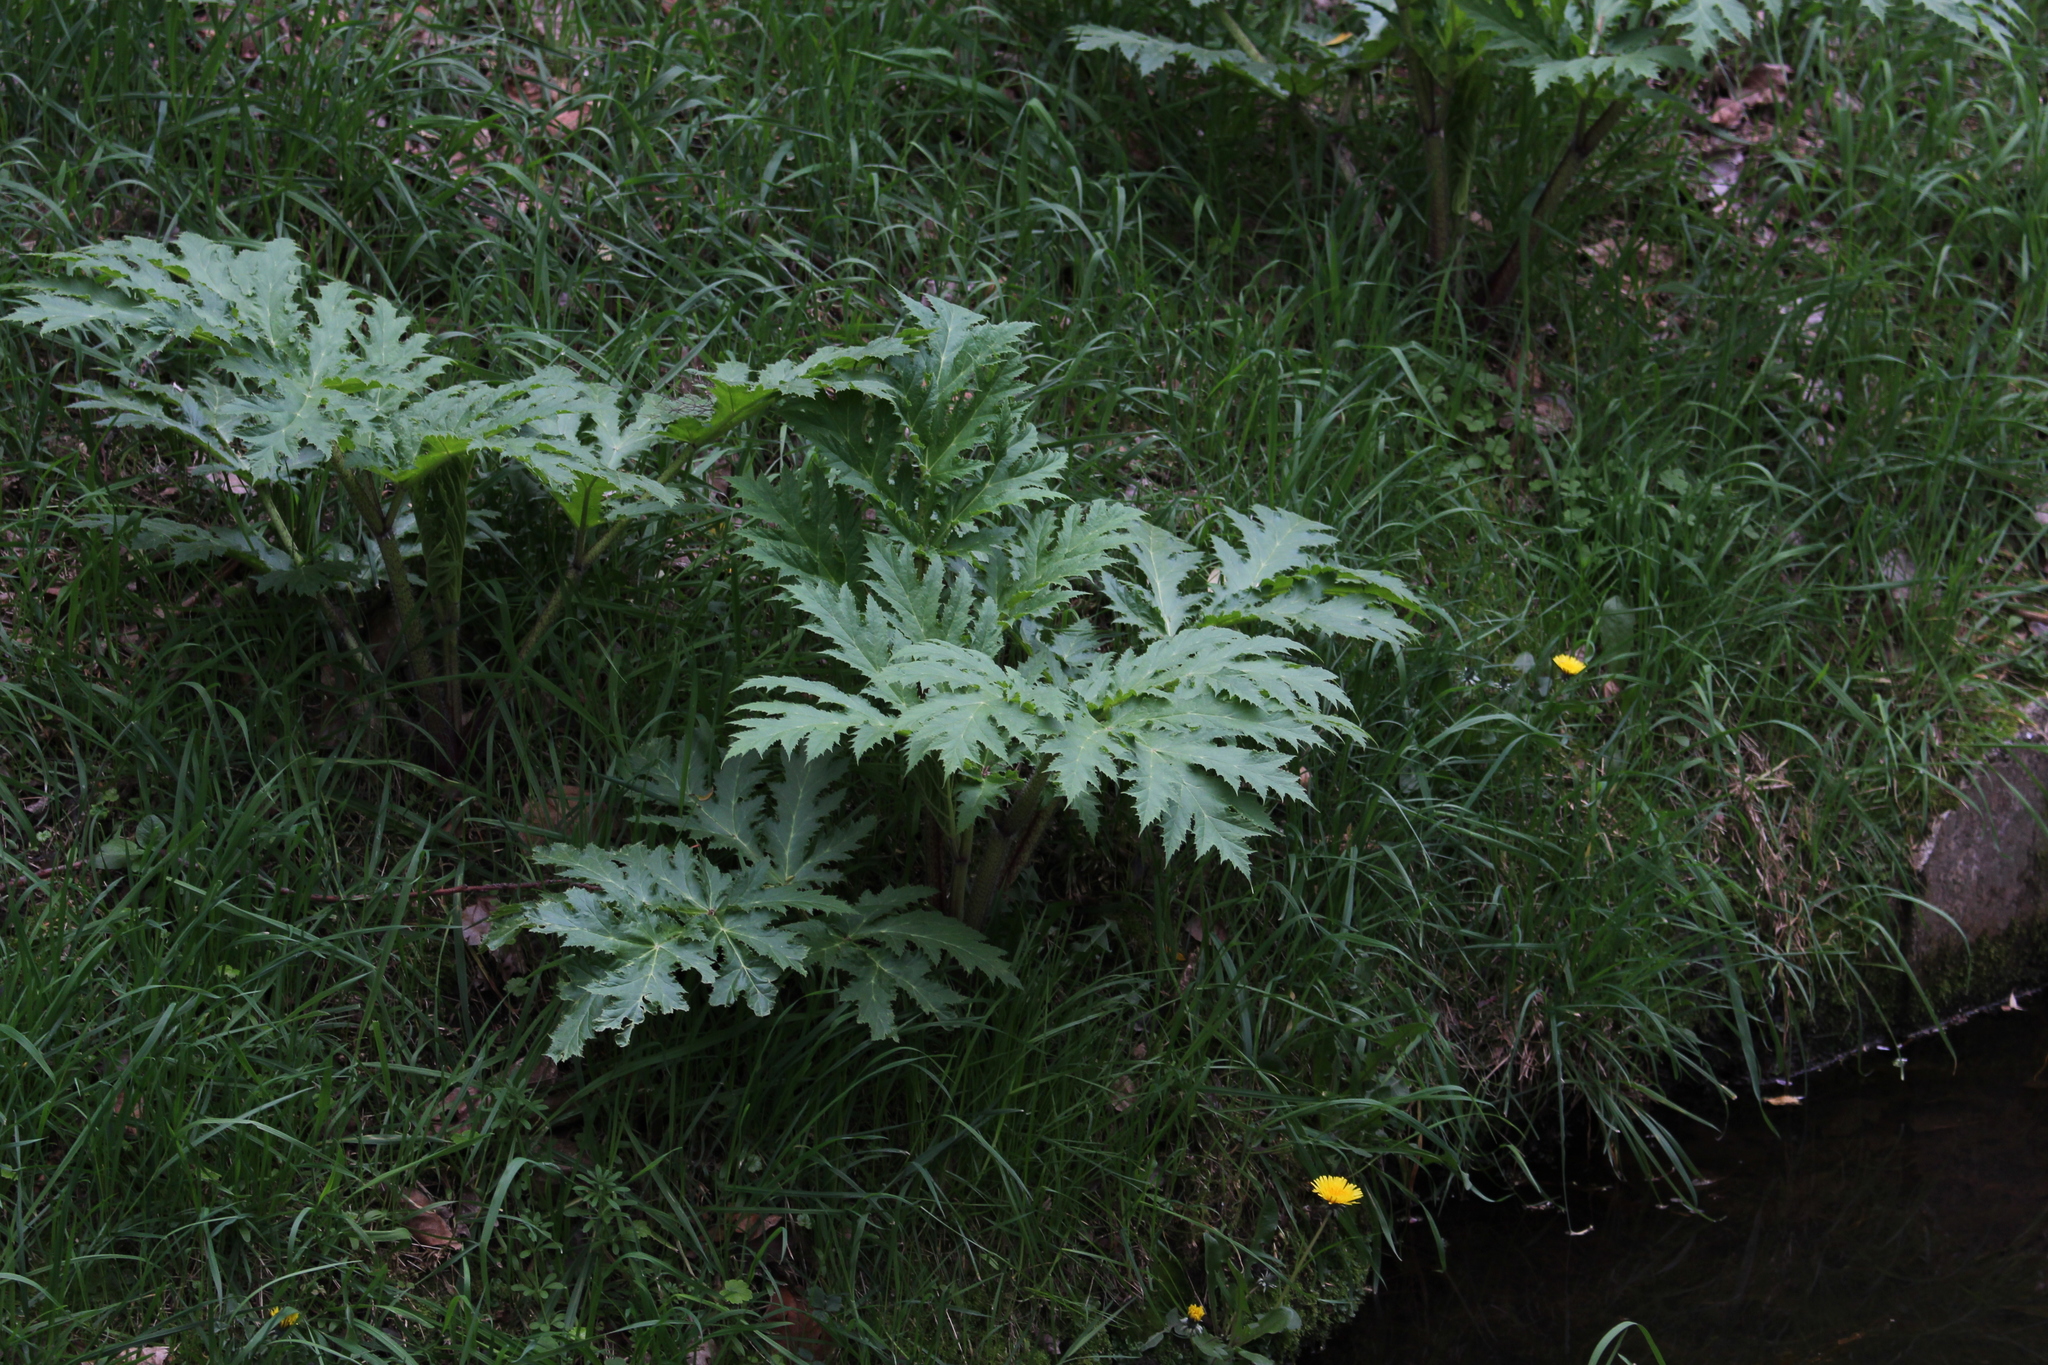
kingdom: Plantae
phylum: Tracheophyta
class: Magnoliopsida
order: Apiales
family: Apiaceae
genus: Heracleum
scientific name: Heracleum mantegazzianum
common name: Giant hogweed
